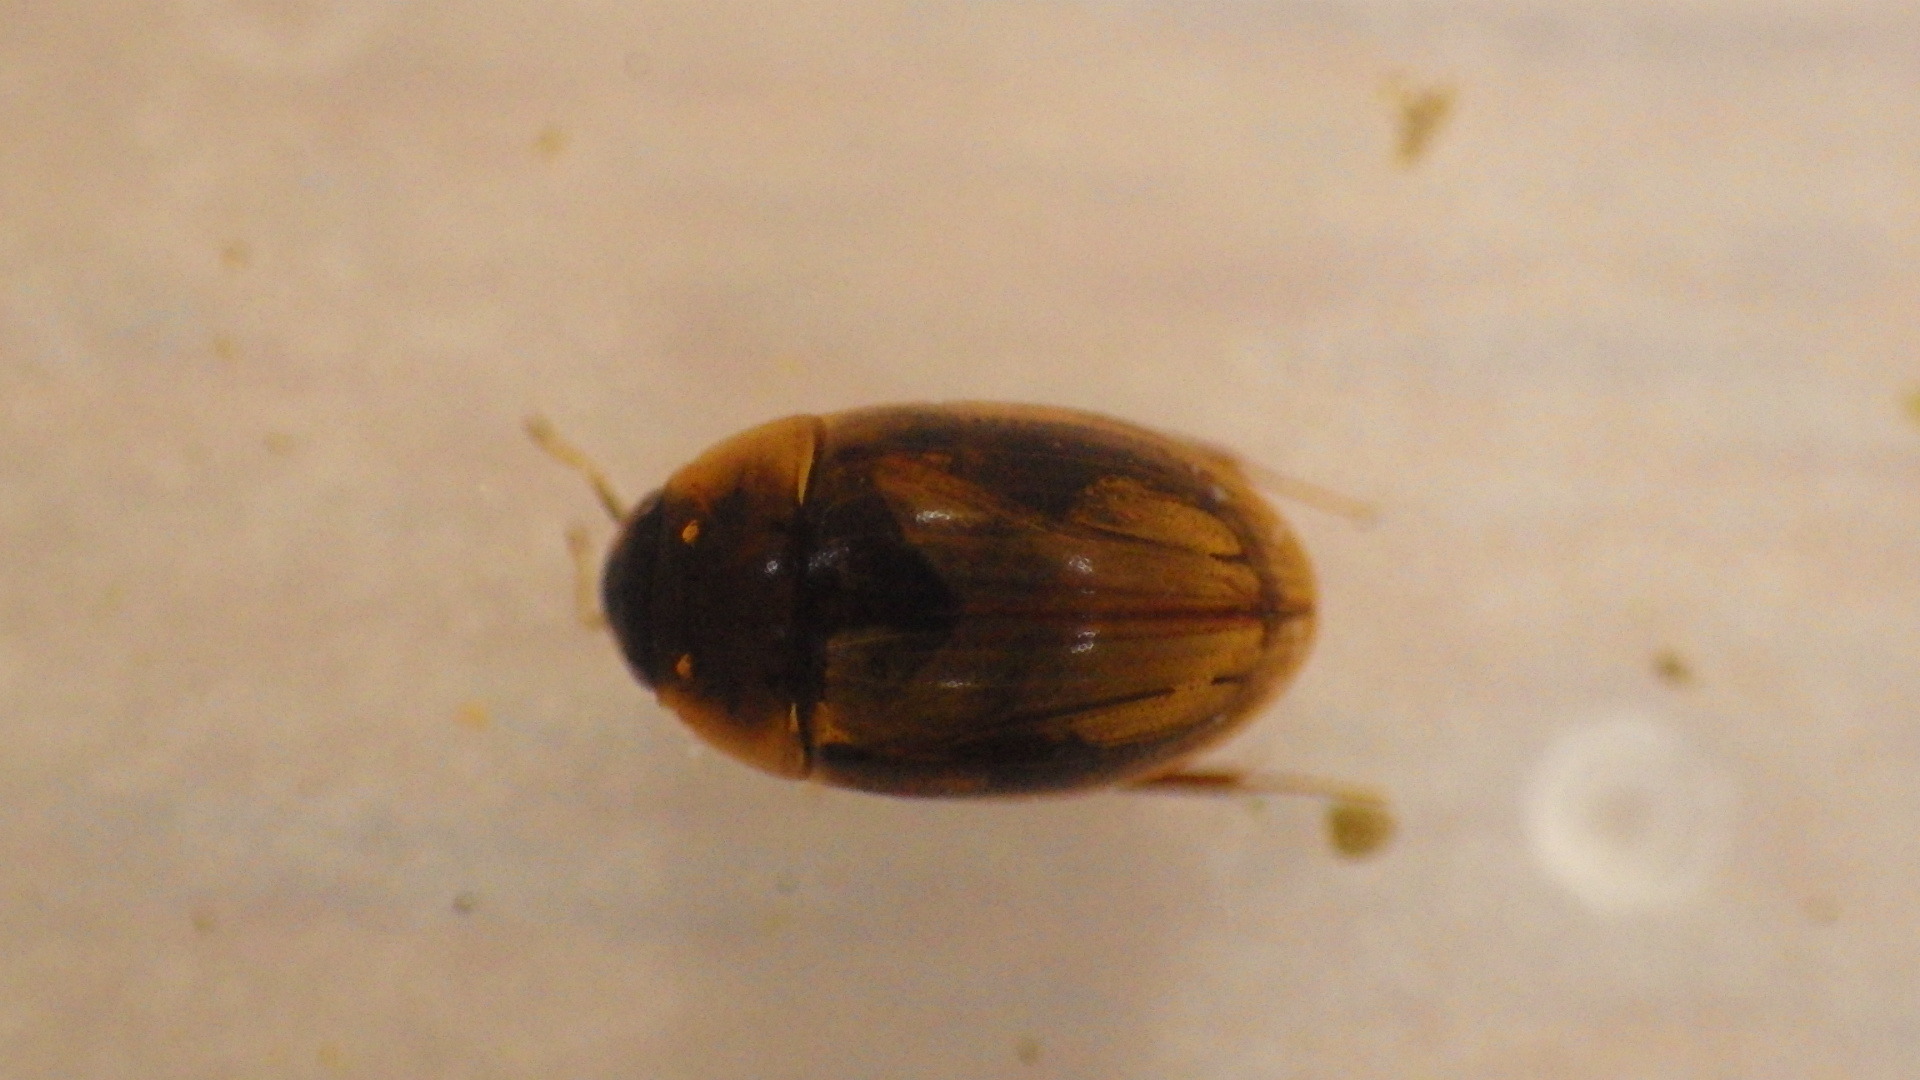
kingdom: Animalia
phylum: Arthropoda
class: Insecta
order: Coleoptera
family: Hydrophilidae
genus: Enochrus
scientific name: Enochrus
